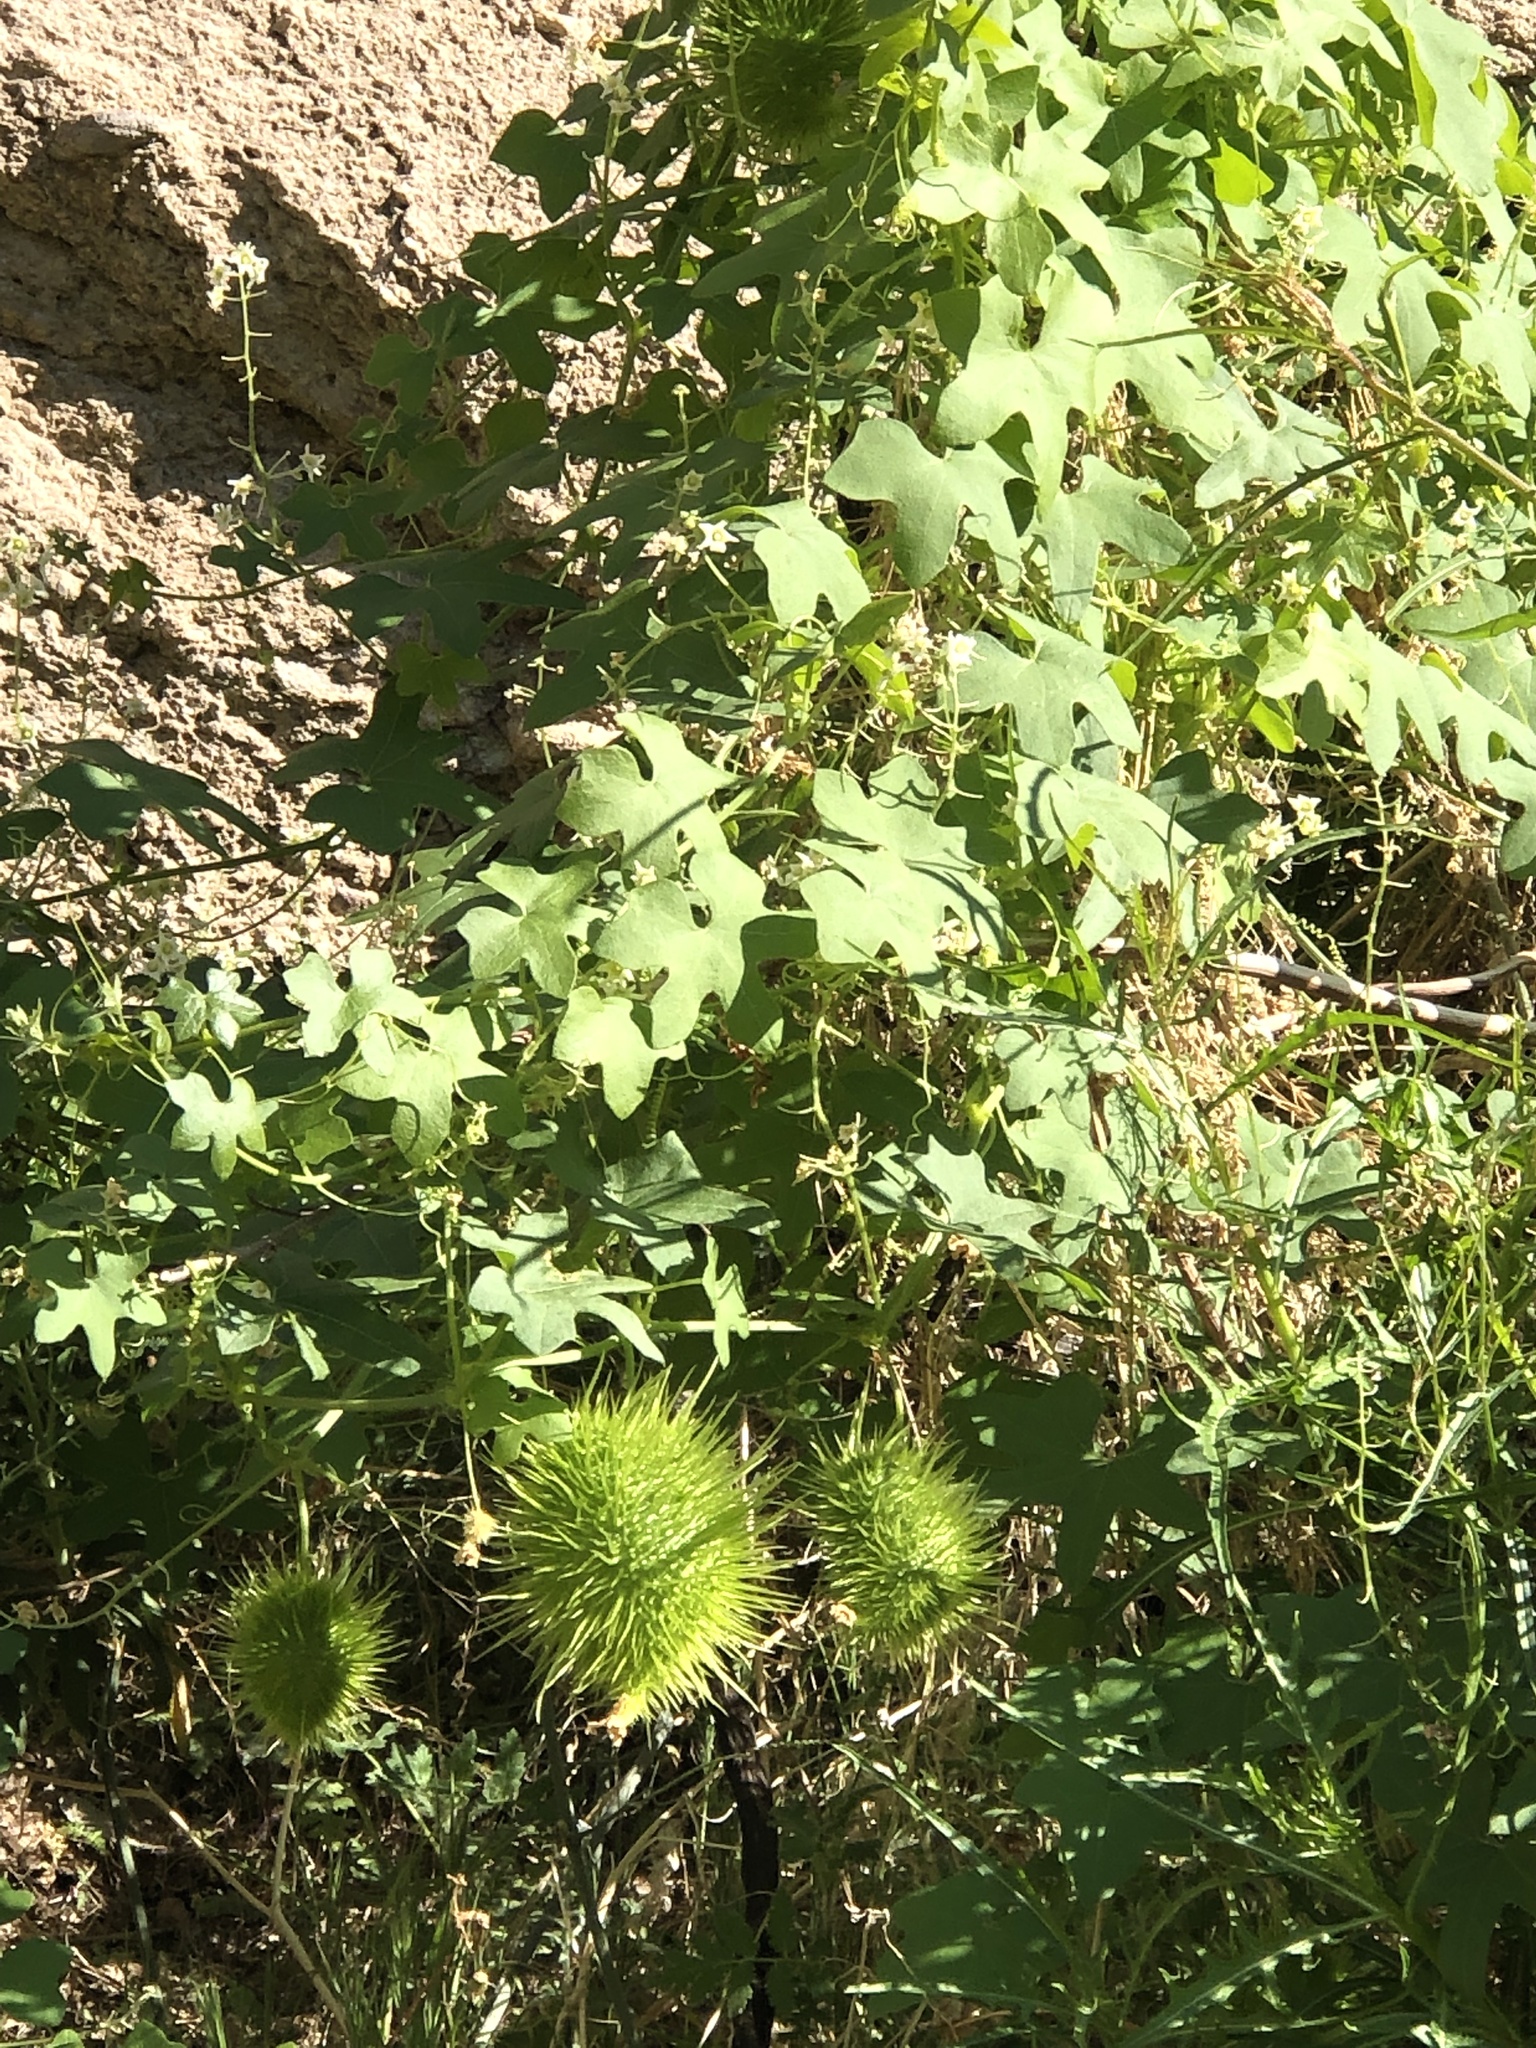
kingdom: Plantae
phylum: Tracheophyta
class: Magnoliopsida
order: Cucurbitales
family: Cucurbitaceae
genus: Marah
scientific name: Marah macrocarpa
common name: Cucamonga manroot
